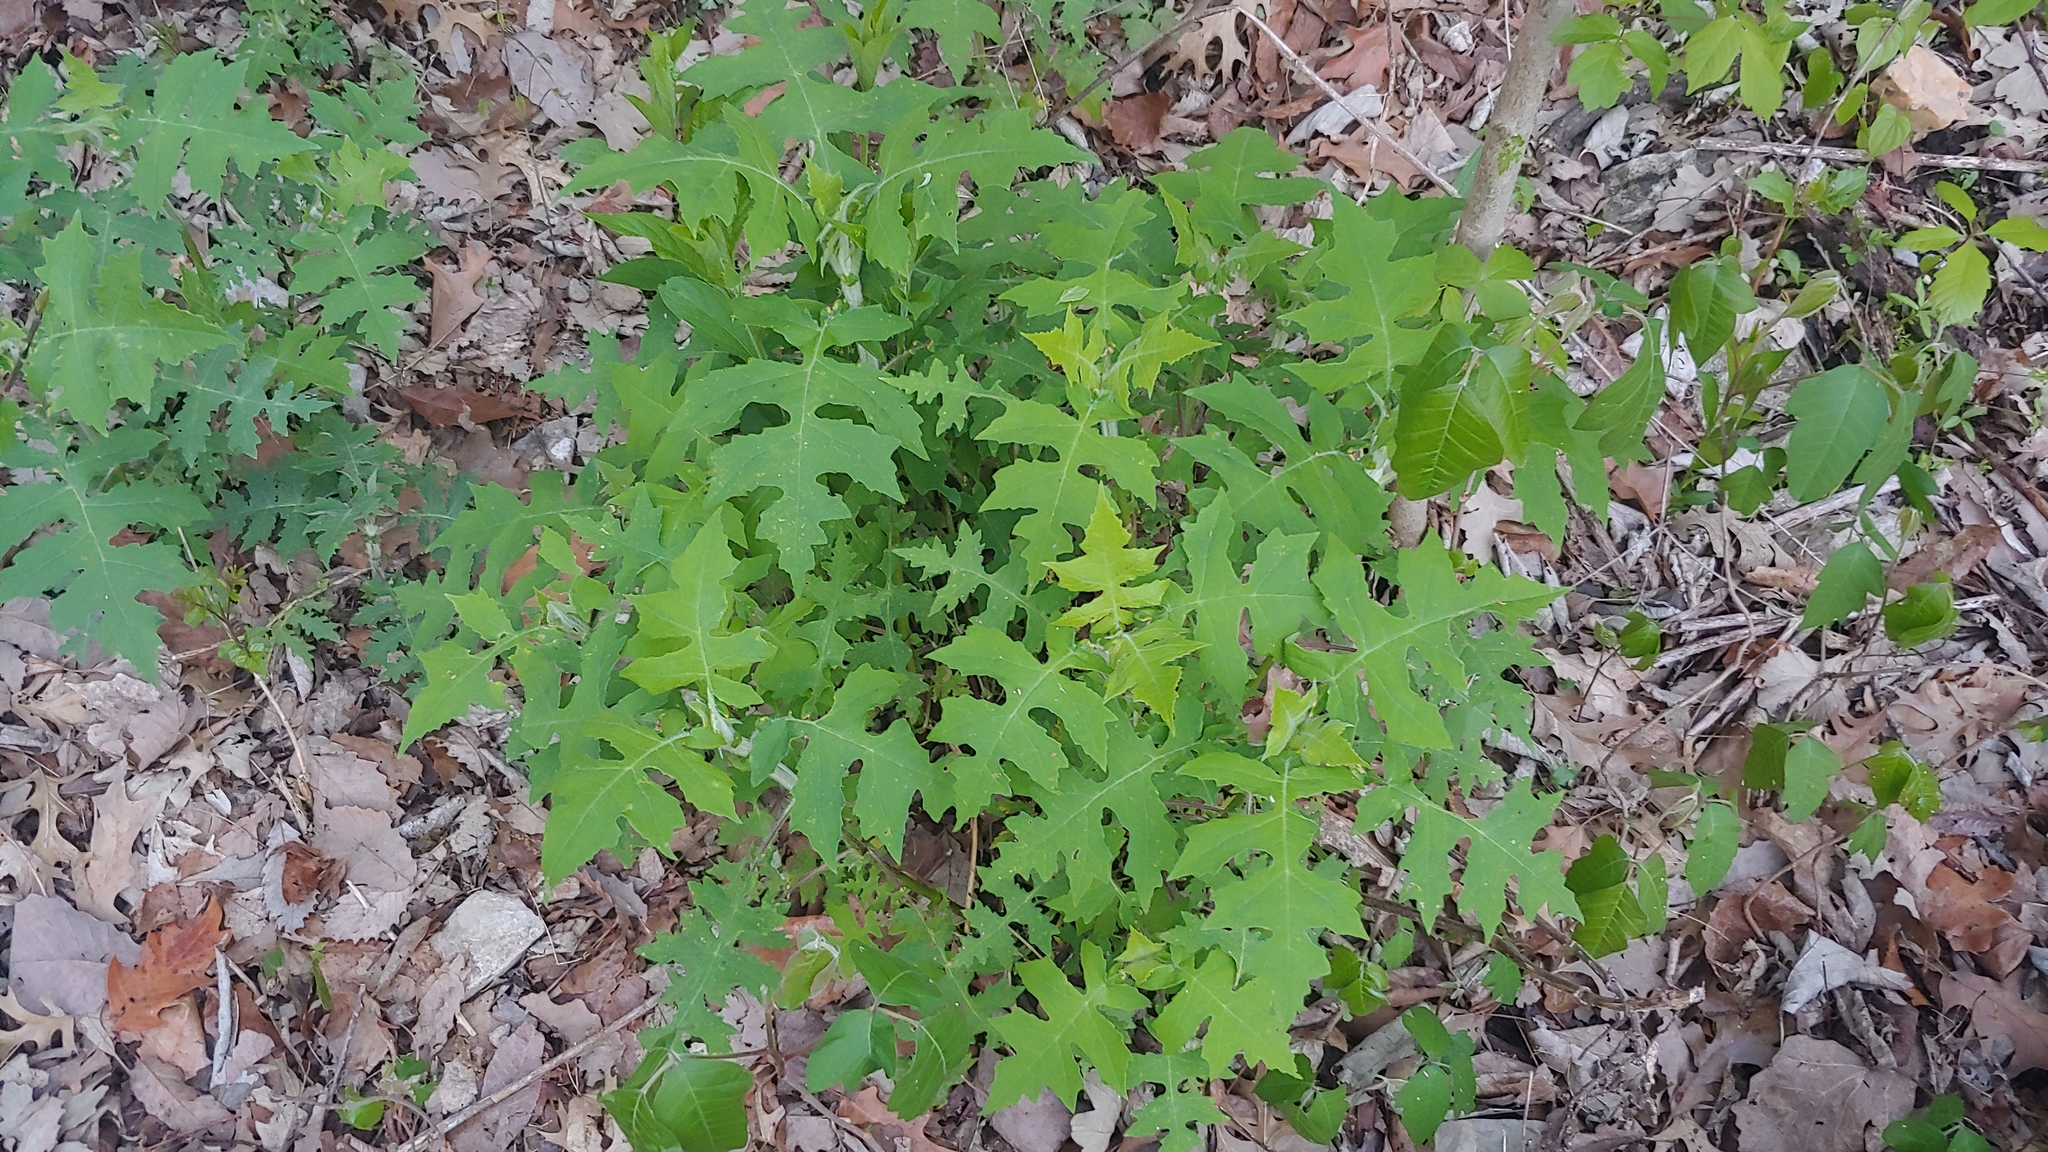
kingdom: Plantae
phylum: Tracheophyta
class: Magnoliopsida
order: Asterales
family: Asteraceae
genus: Polymnia
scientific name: Polymnia canadensis
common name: Pale-flowered leafcup
